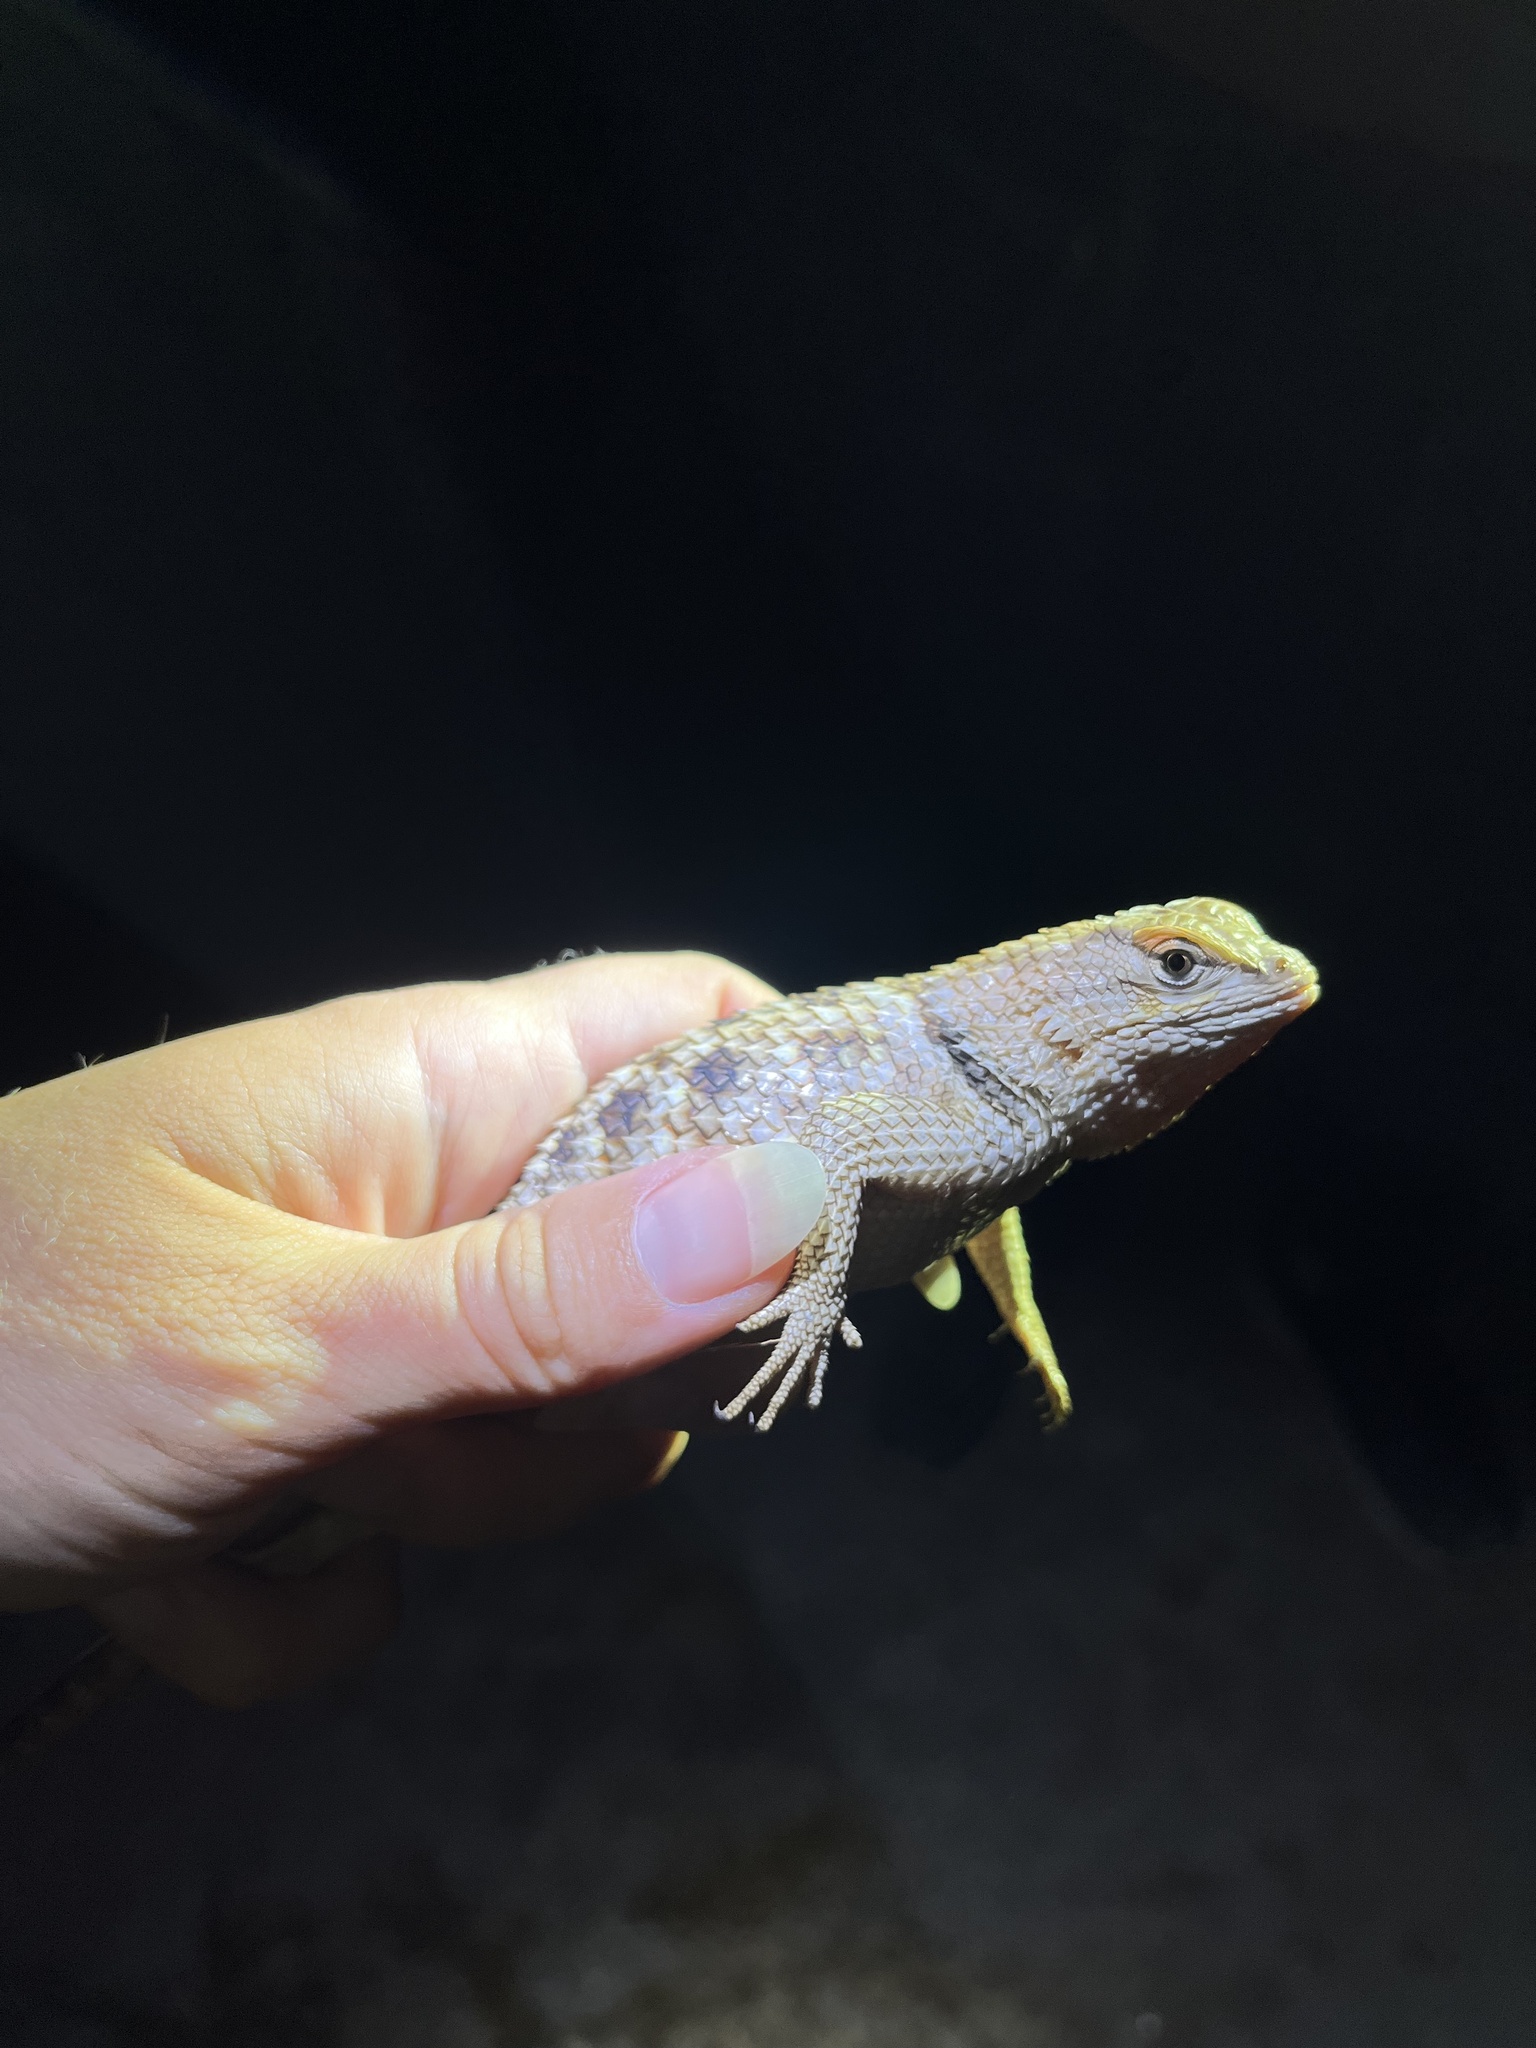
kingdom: Animalia
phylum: Chordata
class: Squamata
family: Phrynosomatidae
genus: Sceloporus
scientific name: Sceloporus magister
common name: Desert spiny lizard
